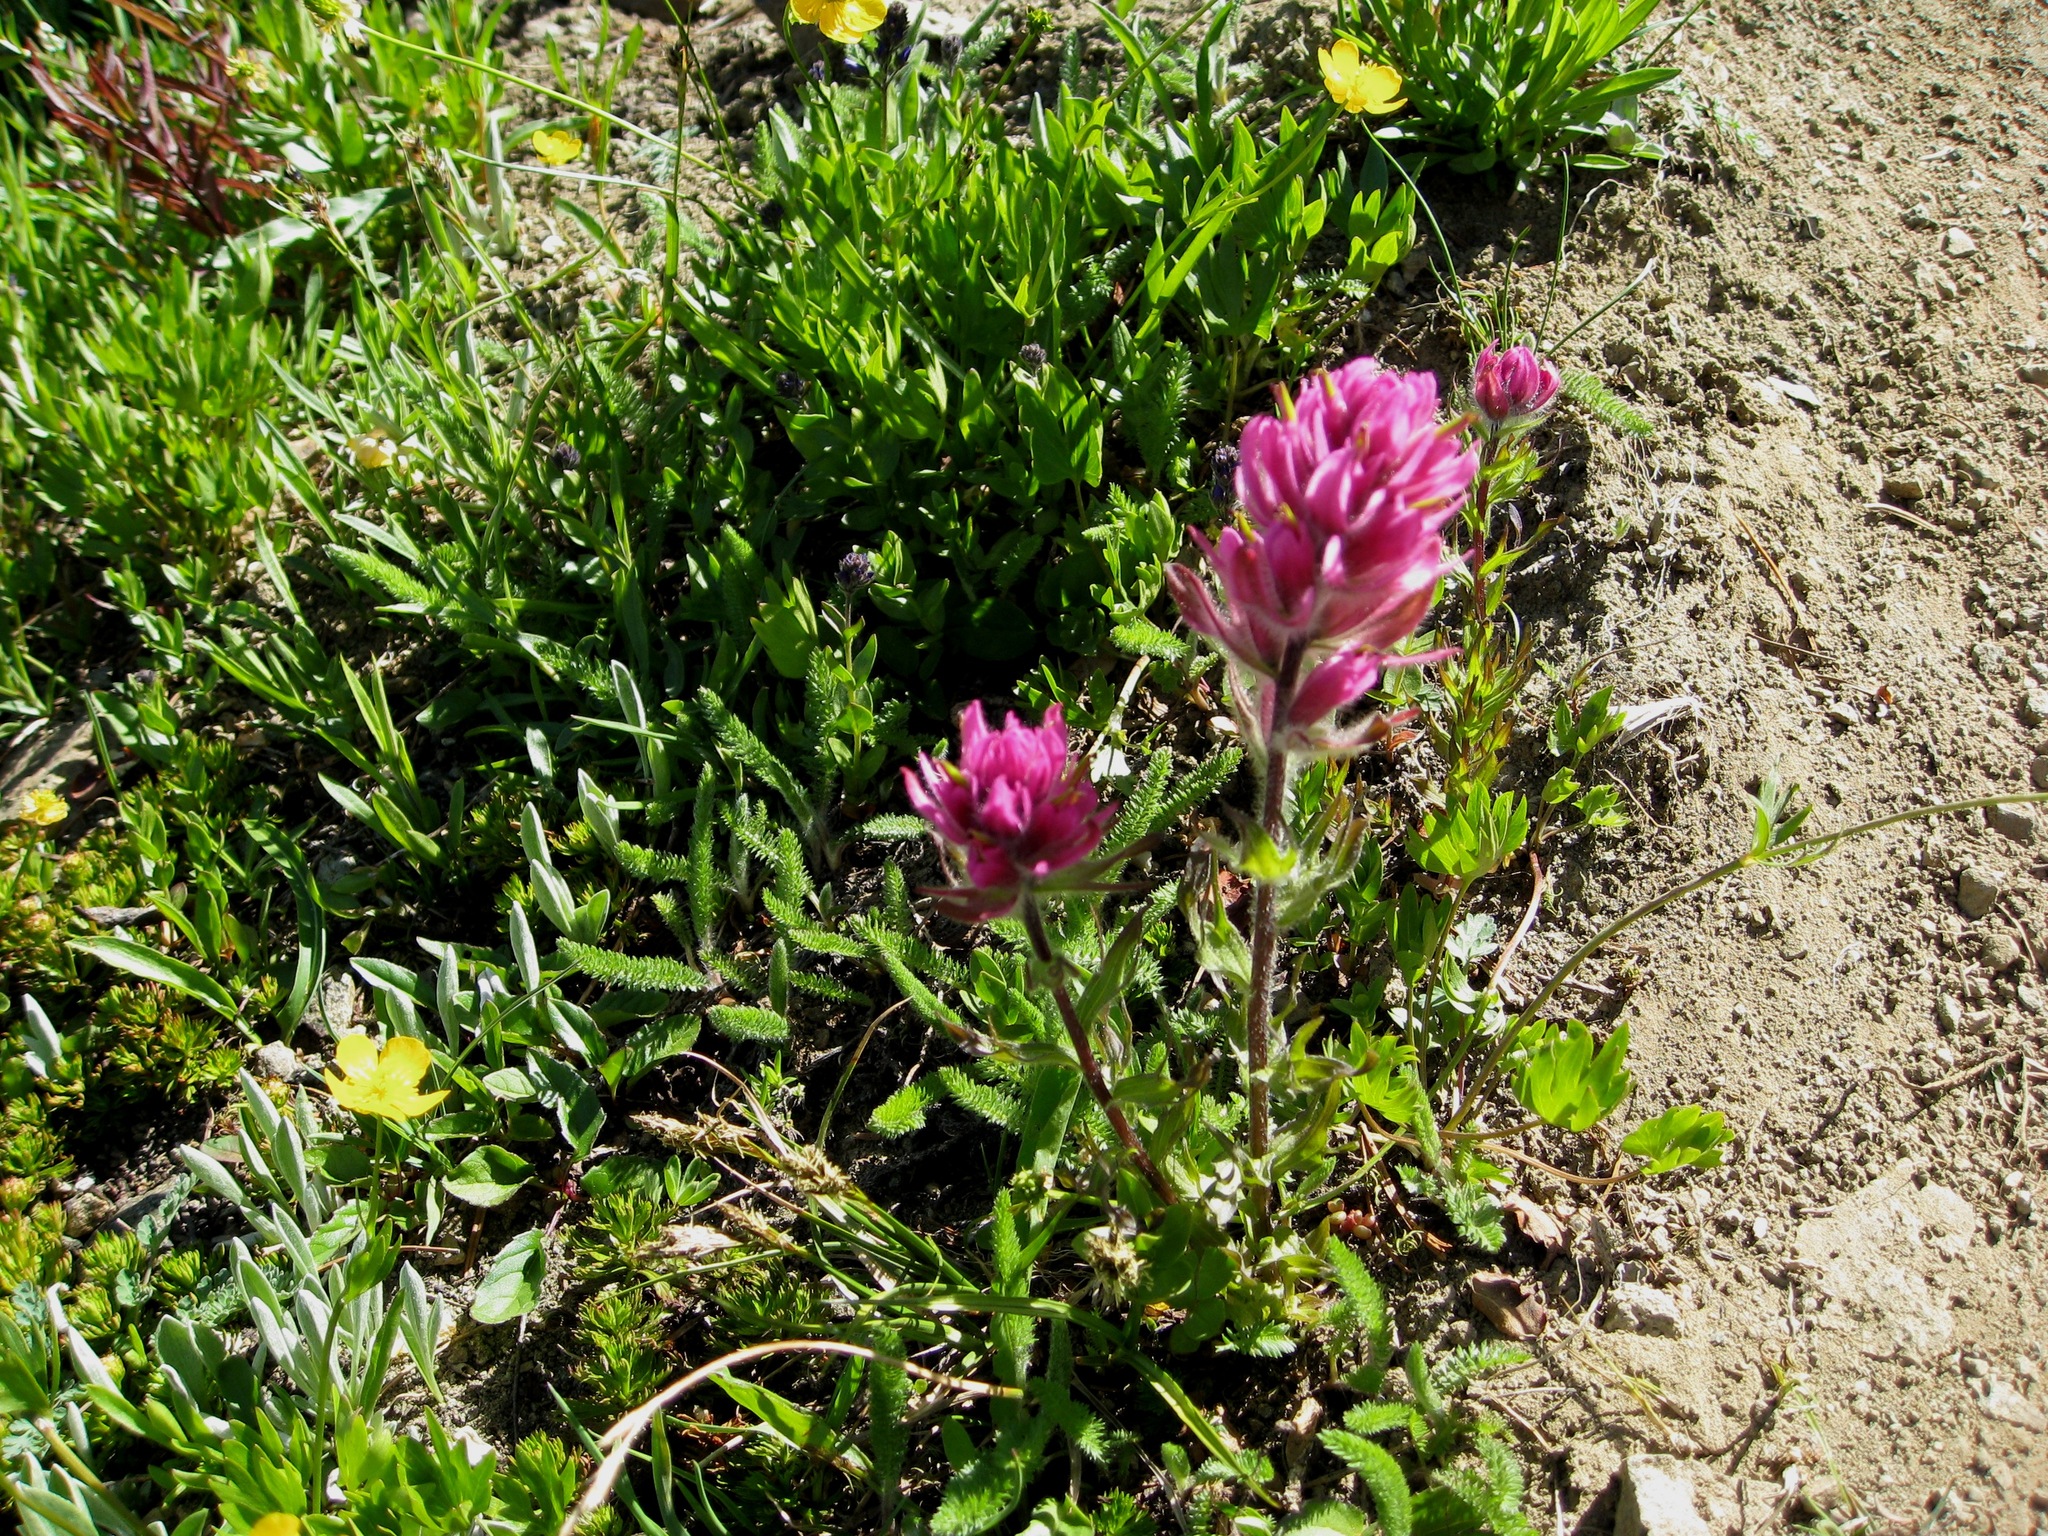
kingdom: Plantae
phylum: Tracheophyta
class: Magnoliopsida
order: Lamiales
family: Orobanchaceae
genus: Castilleja
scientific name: Castilleja parviflora
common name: Mountain paintbrush
